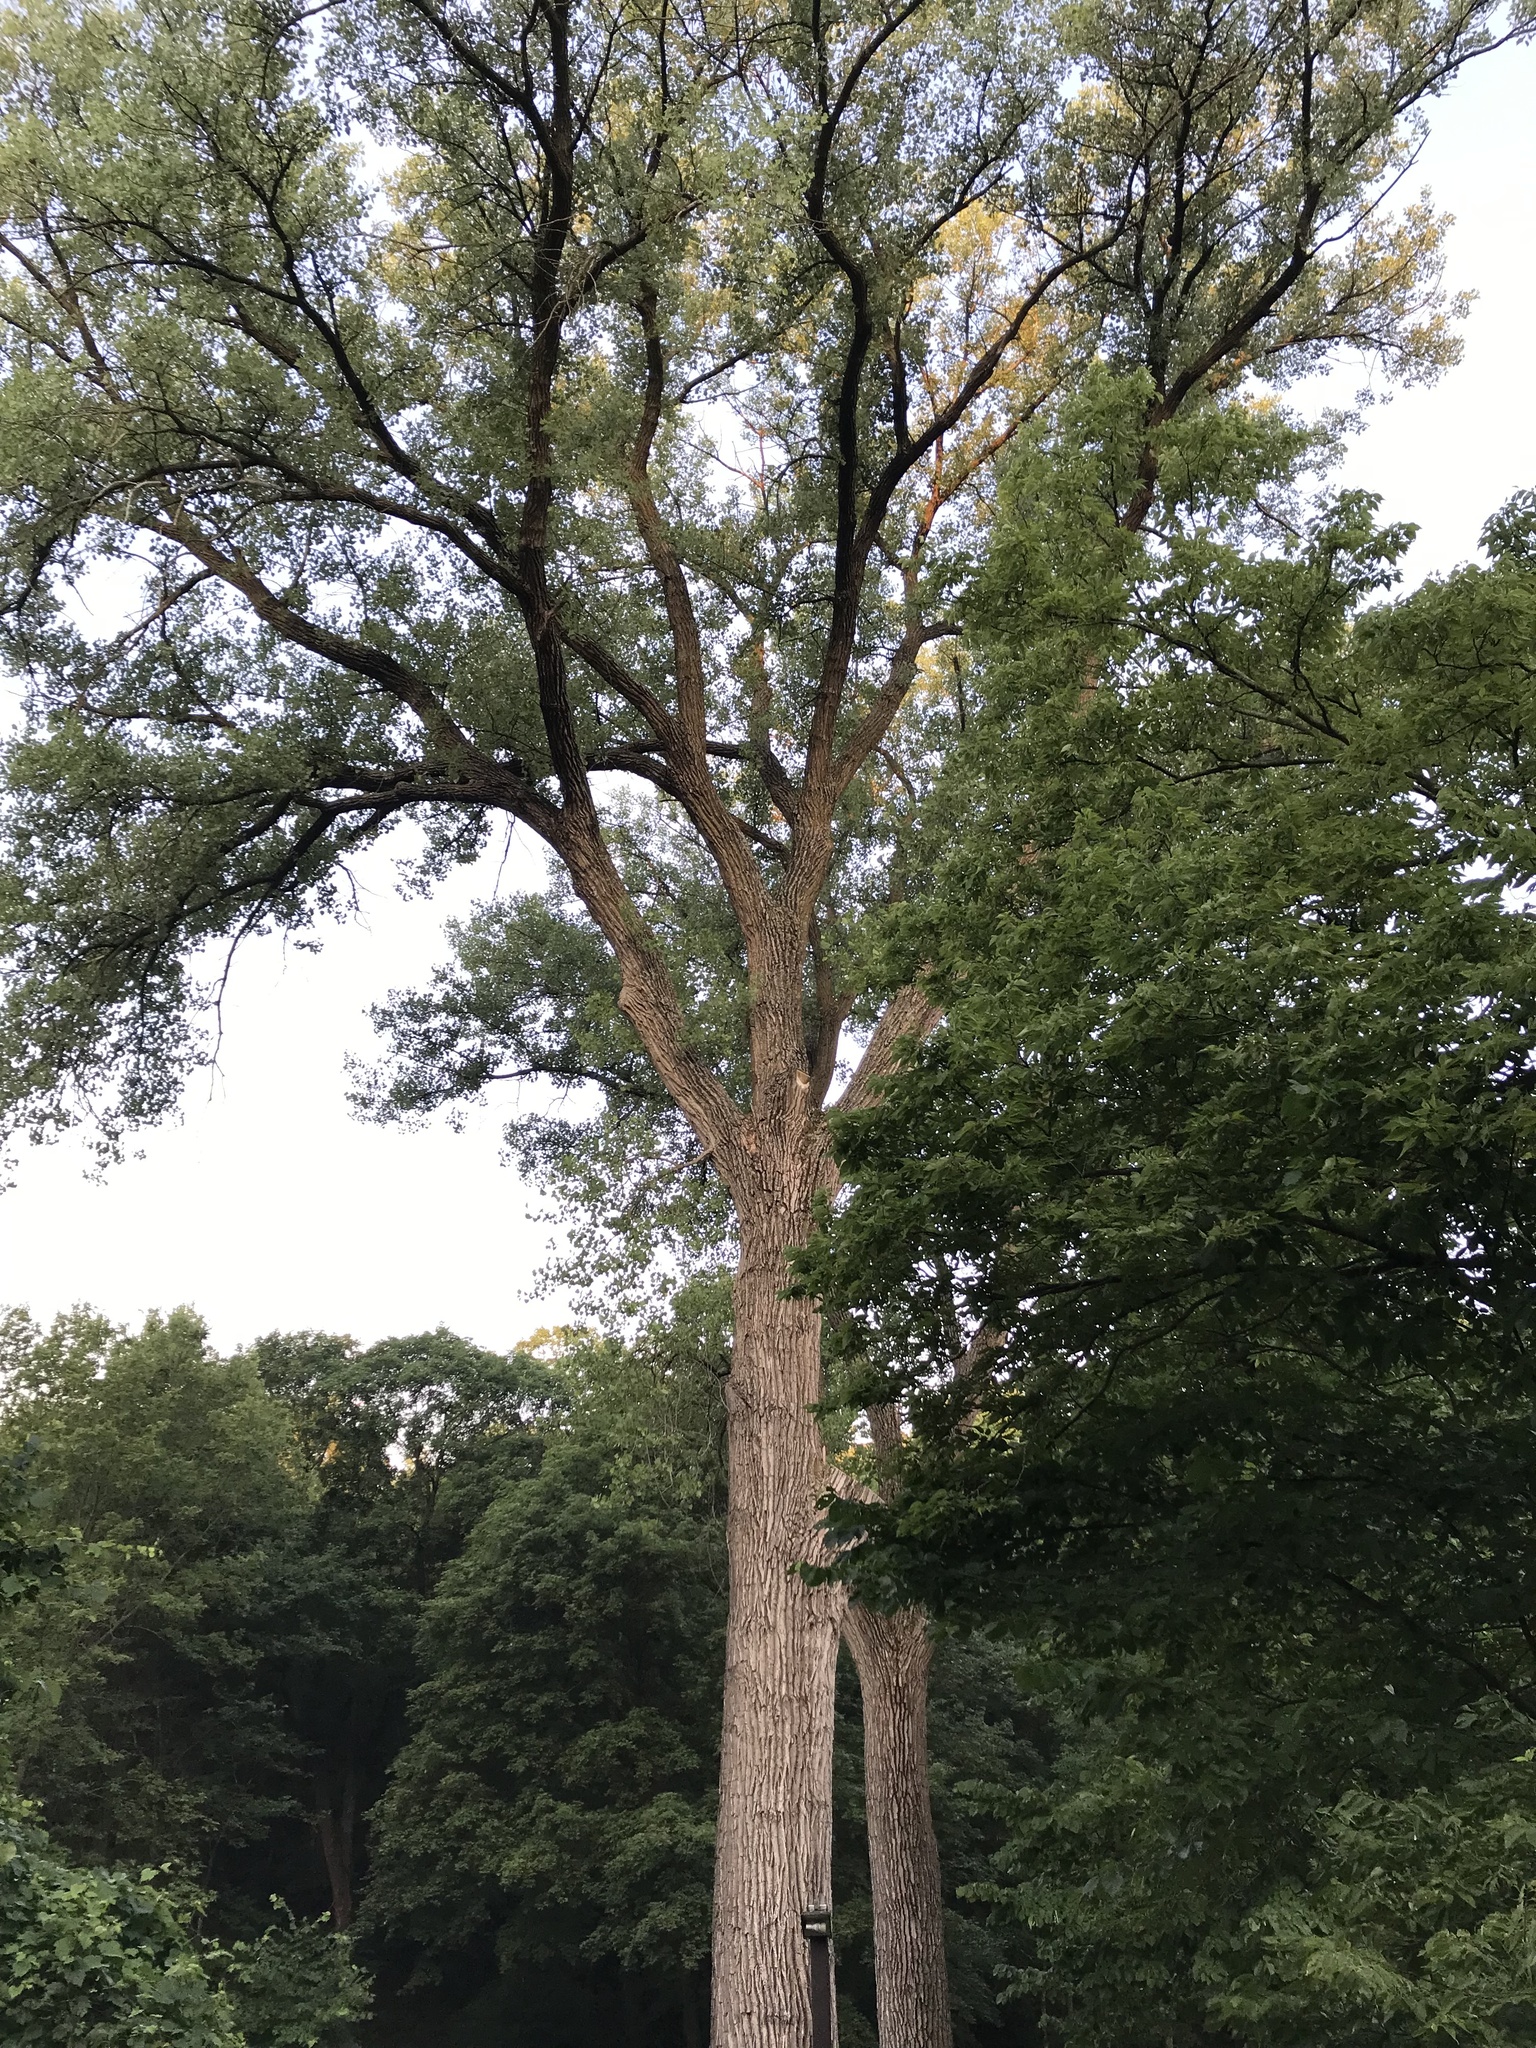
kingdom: Plantae
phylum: Tracheophyta
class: Magnoliopsida
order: Malpighiales
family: Salicaceae
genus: Populus
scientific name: Populus deltoides
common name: Eastern cottonwood
